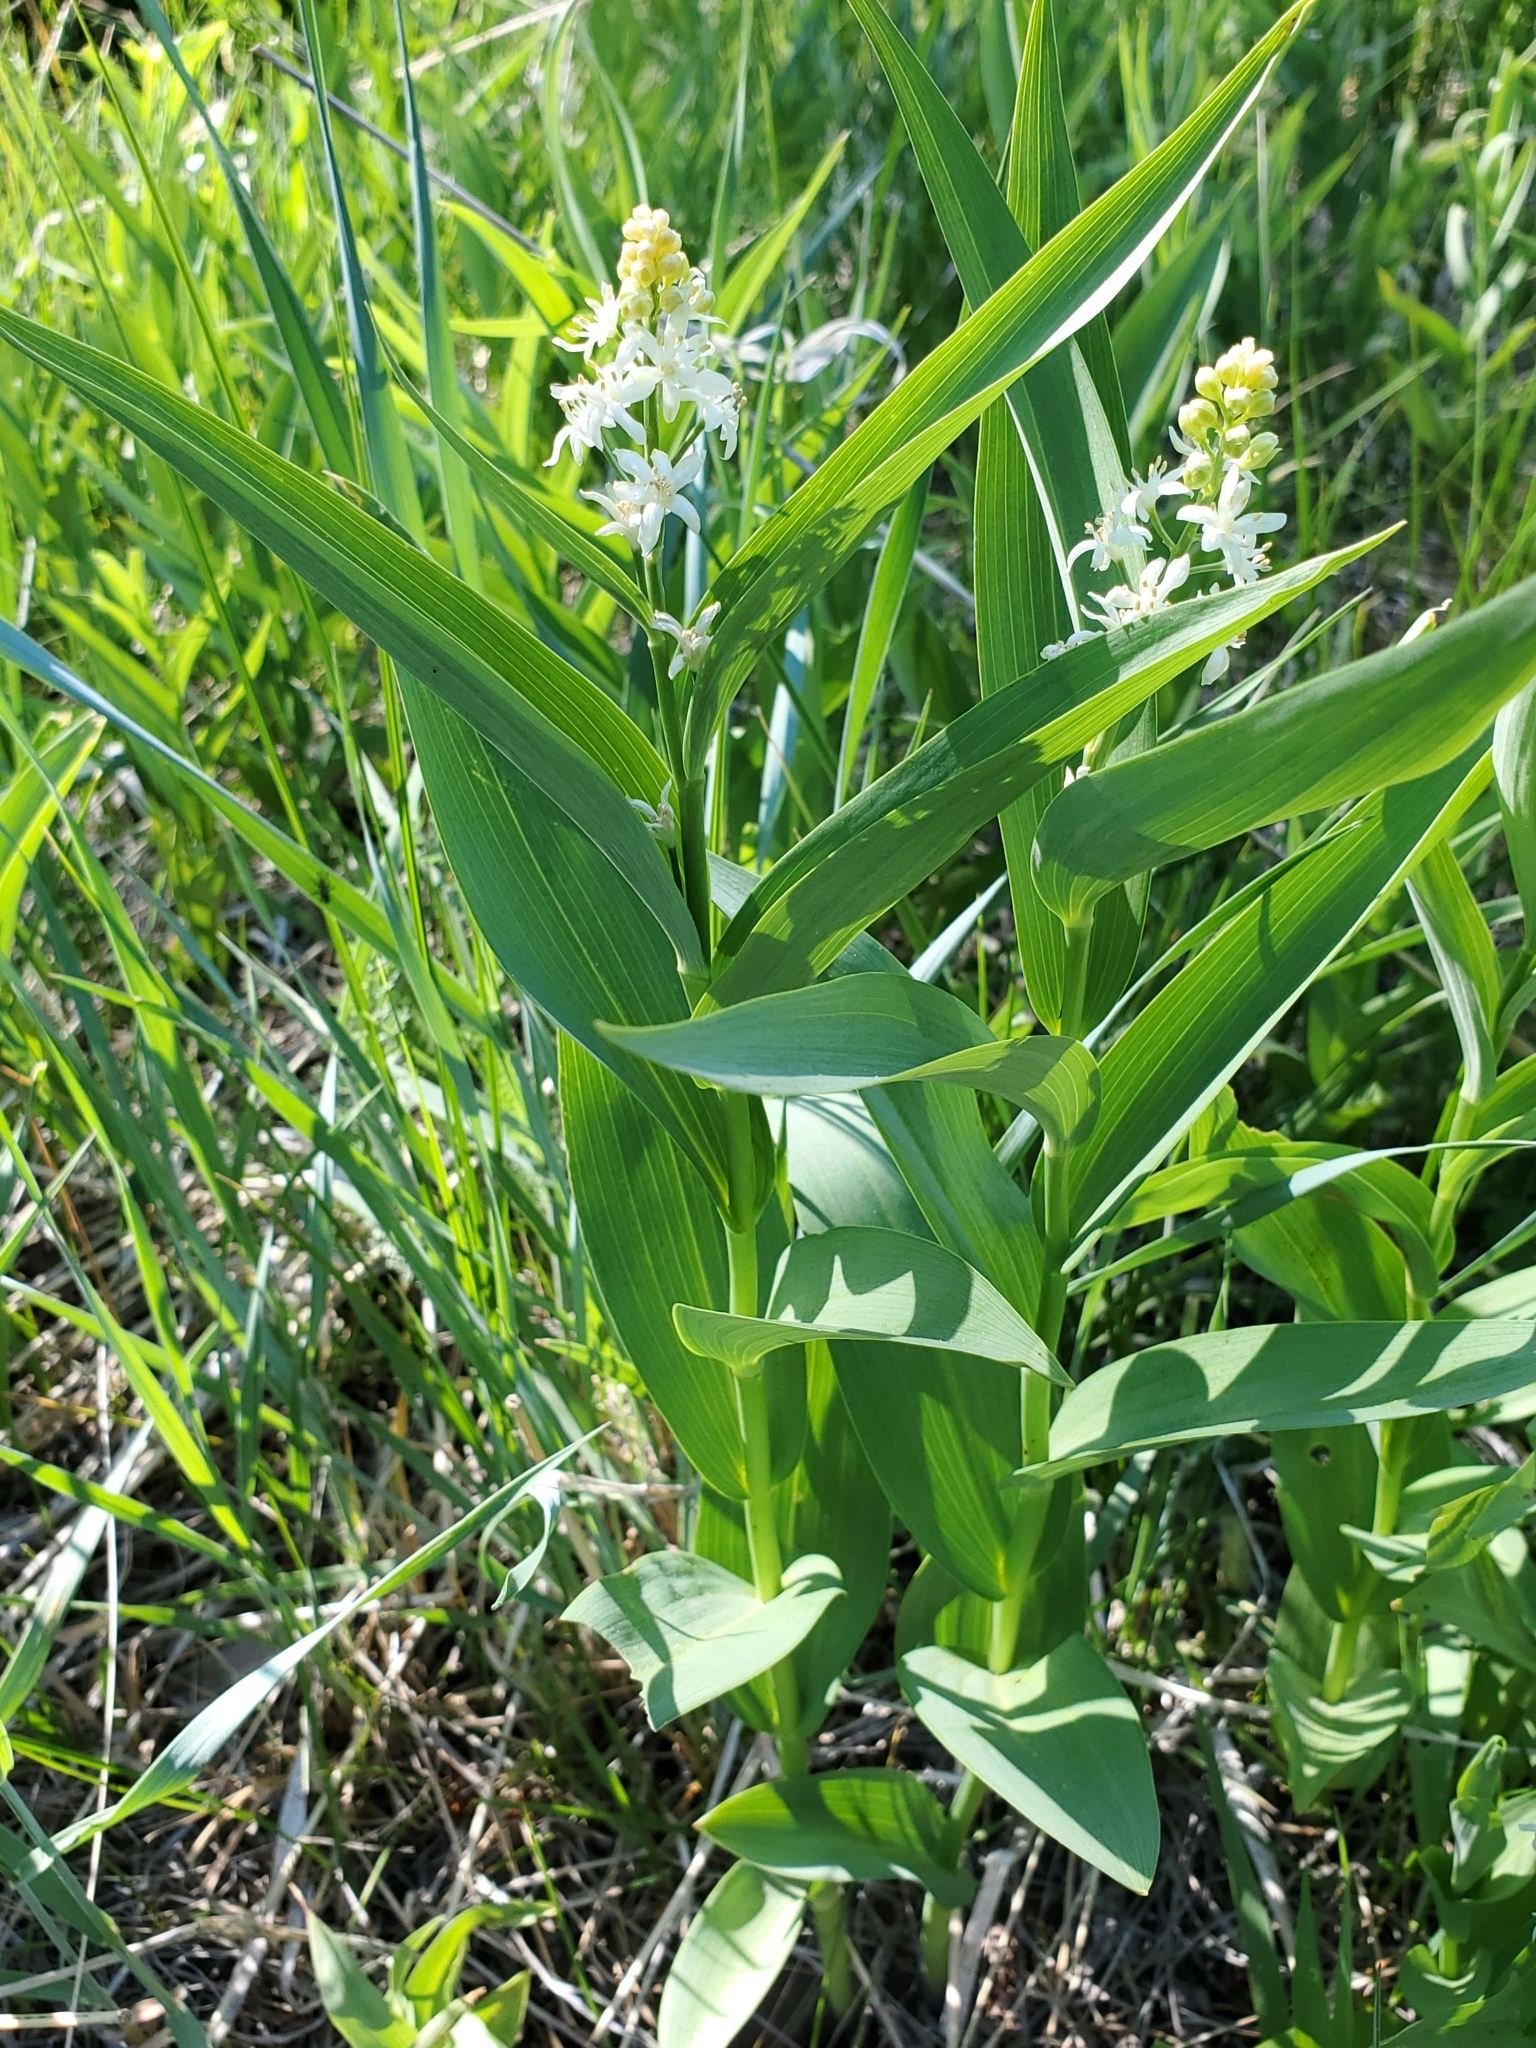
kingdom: Plantae
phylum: Tracheophyta
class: Liliopsida
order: Asparagales
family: Asparagaceae
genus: Maianthemum
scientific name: Maianthemum stellatum
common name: Little false solomon's seal
